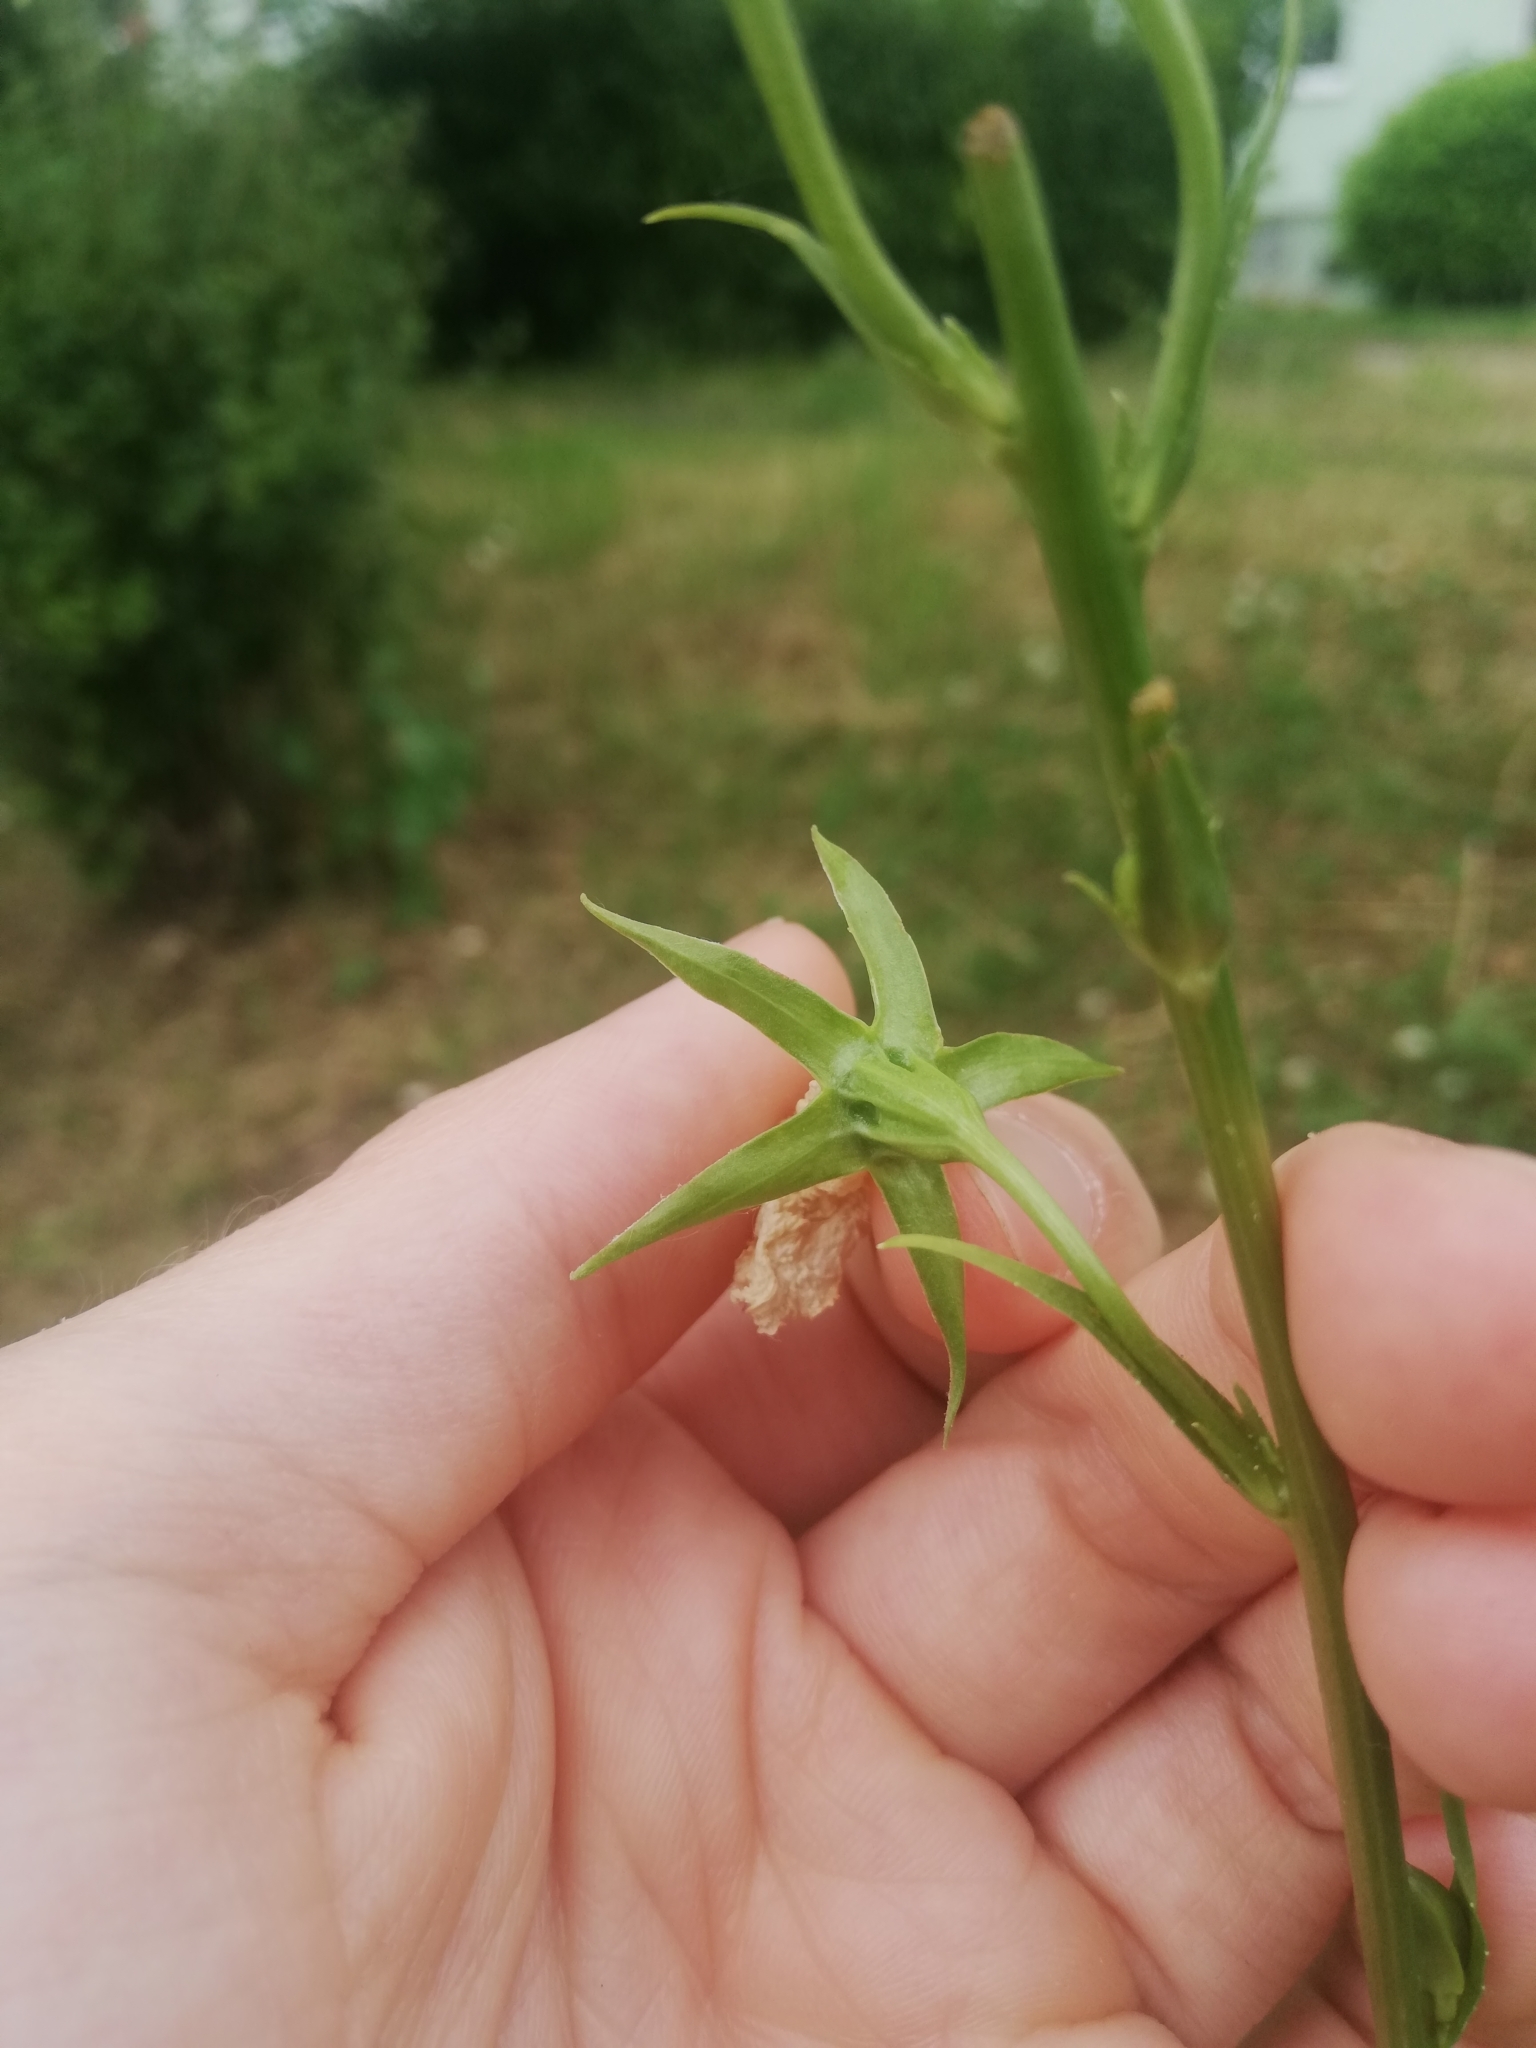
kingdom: Plantae
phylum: Tracheophyta
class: Magnoliopsida
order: Asterales
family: Campanulaceae
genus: Campanula
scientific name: Campanula persicifolia
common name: Peach-leaved bellflower
